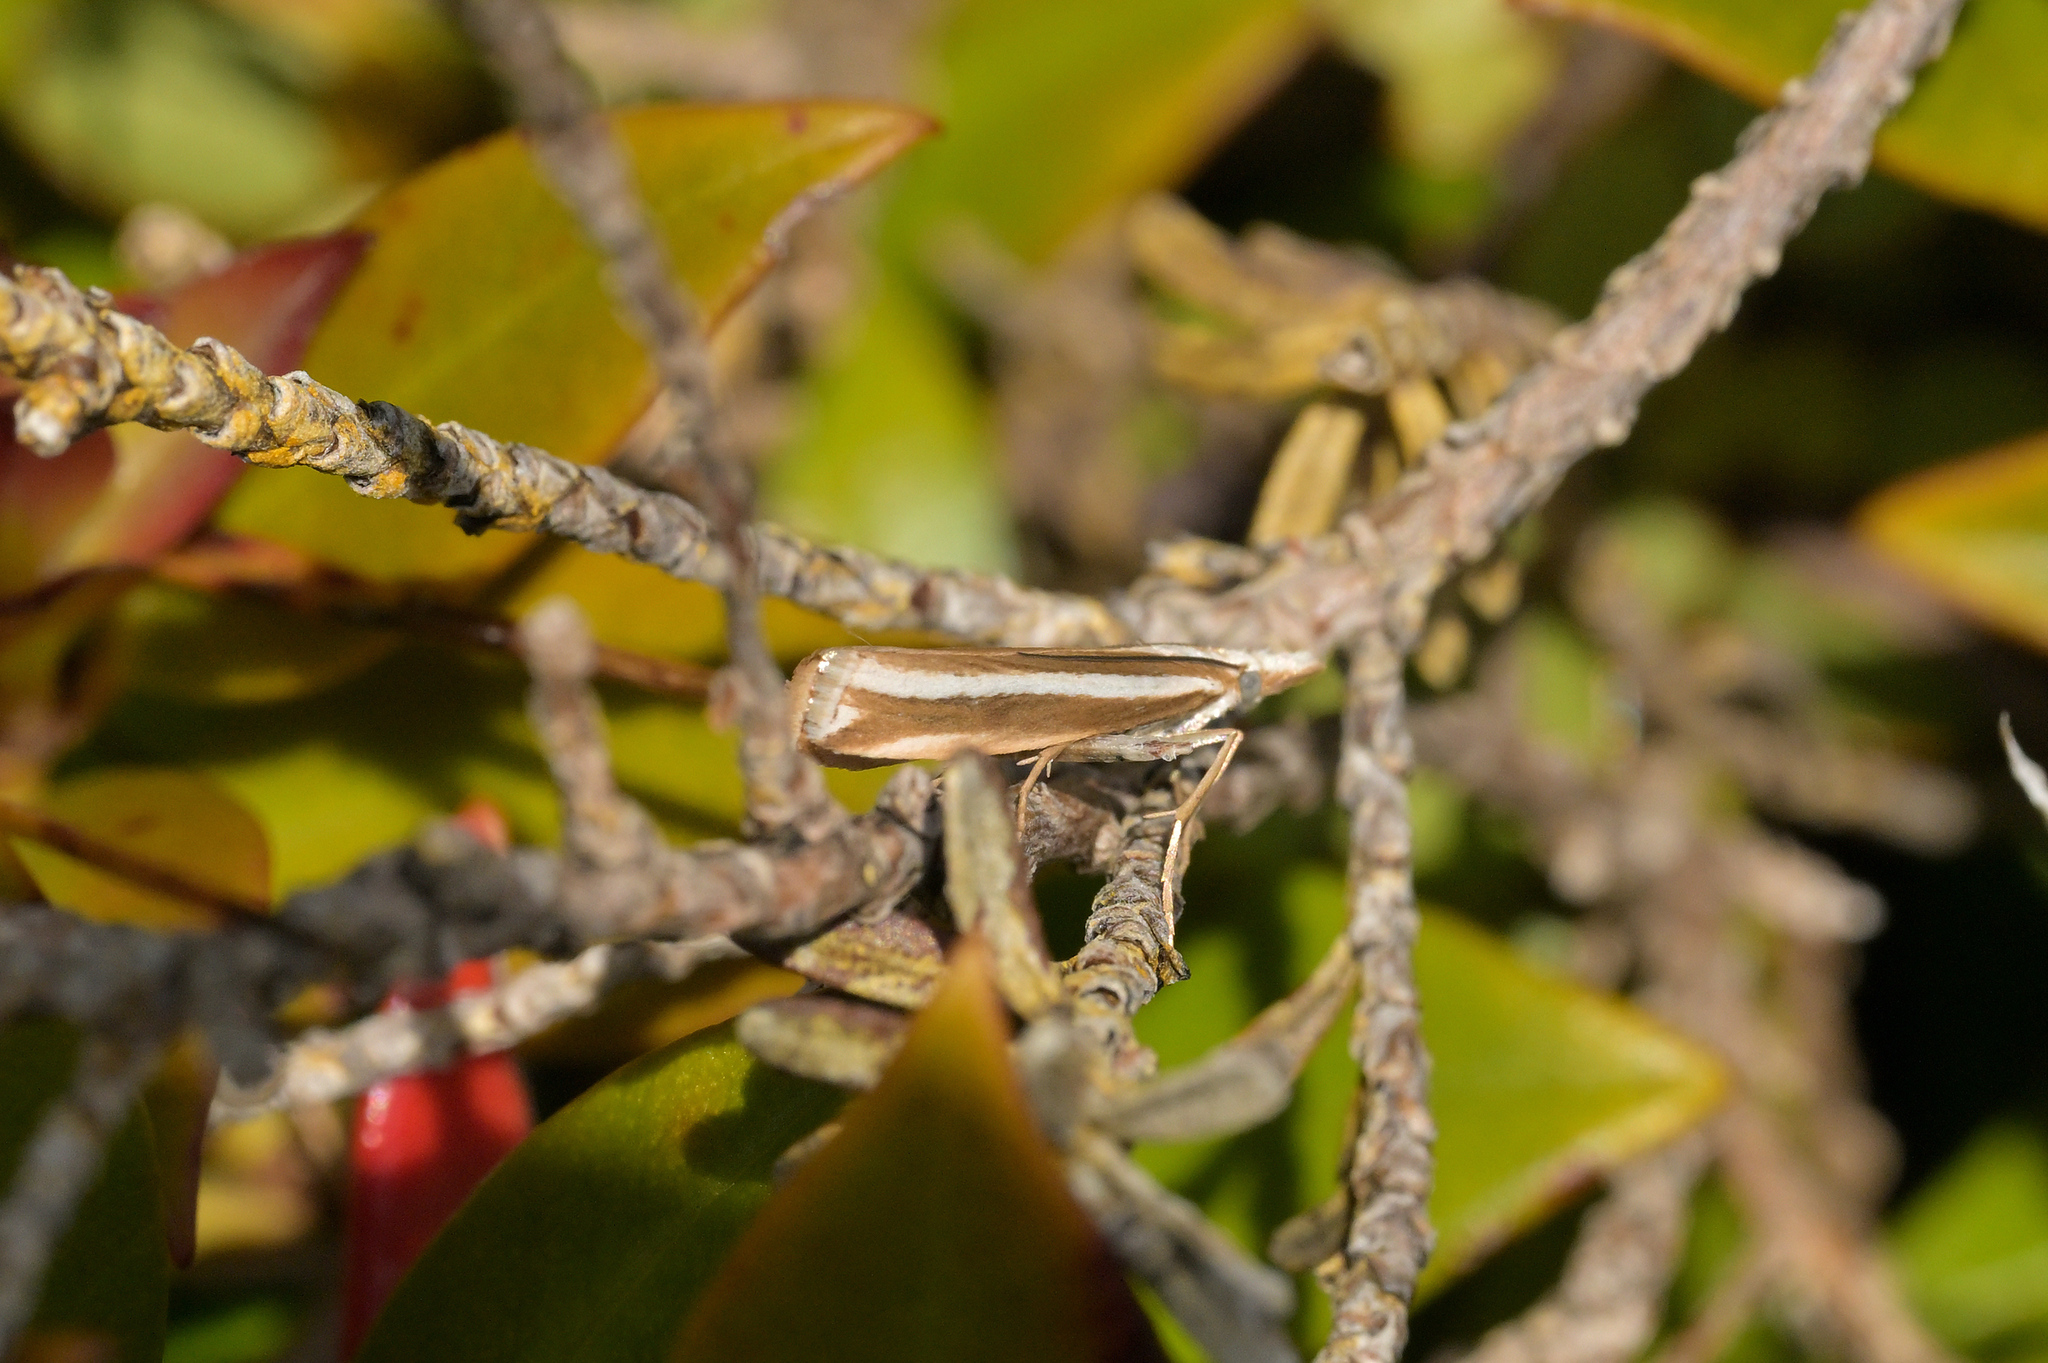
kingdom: Animalia
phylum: Arthropoda
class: Insecta
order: Lepidoptera
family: Crambidae
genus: Orocrambus
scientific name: Orocrambus apicellus
